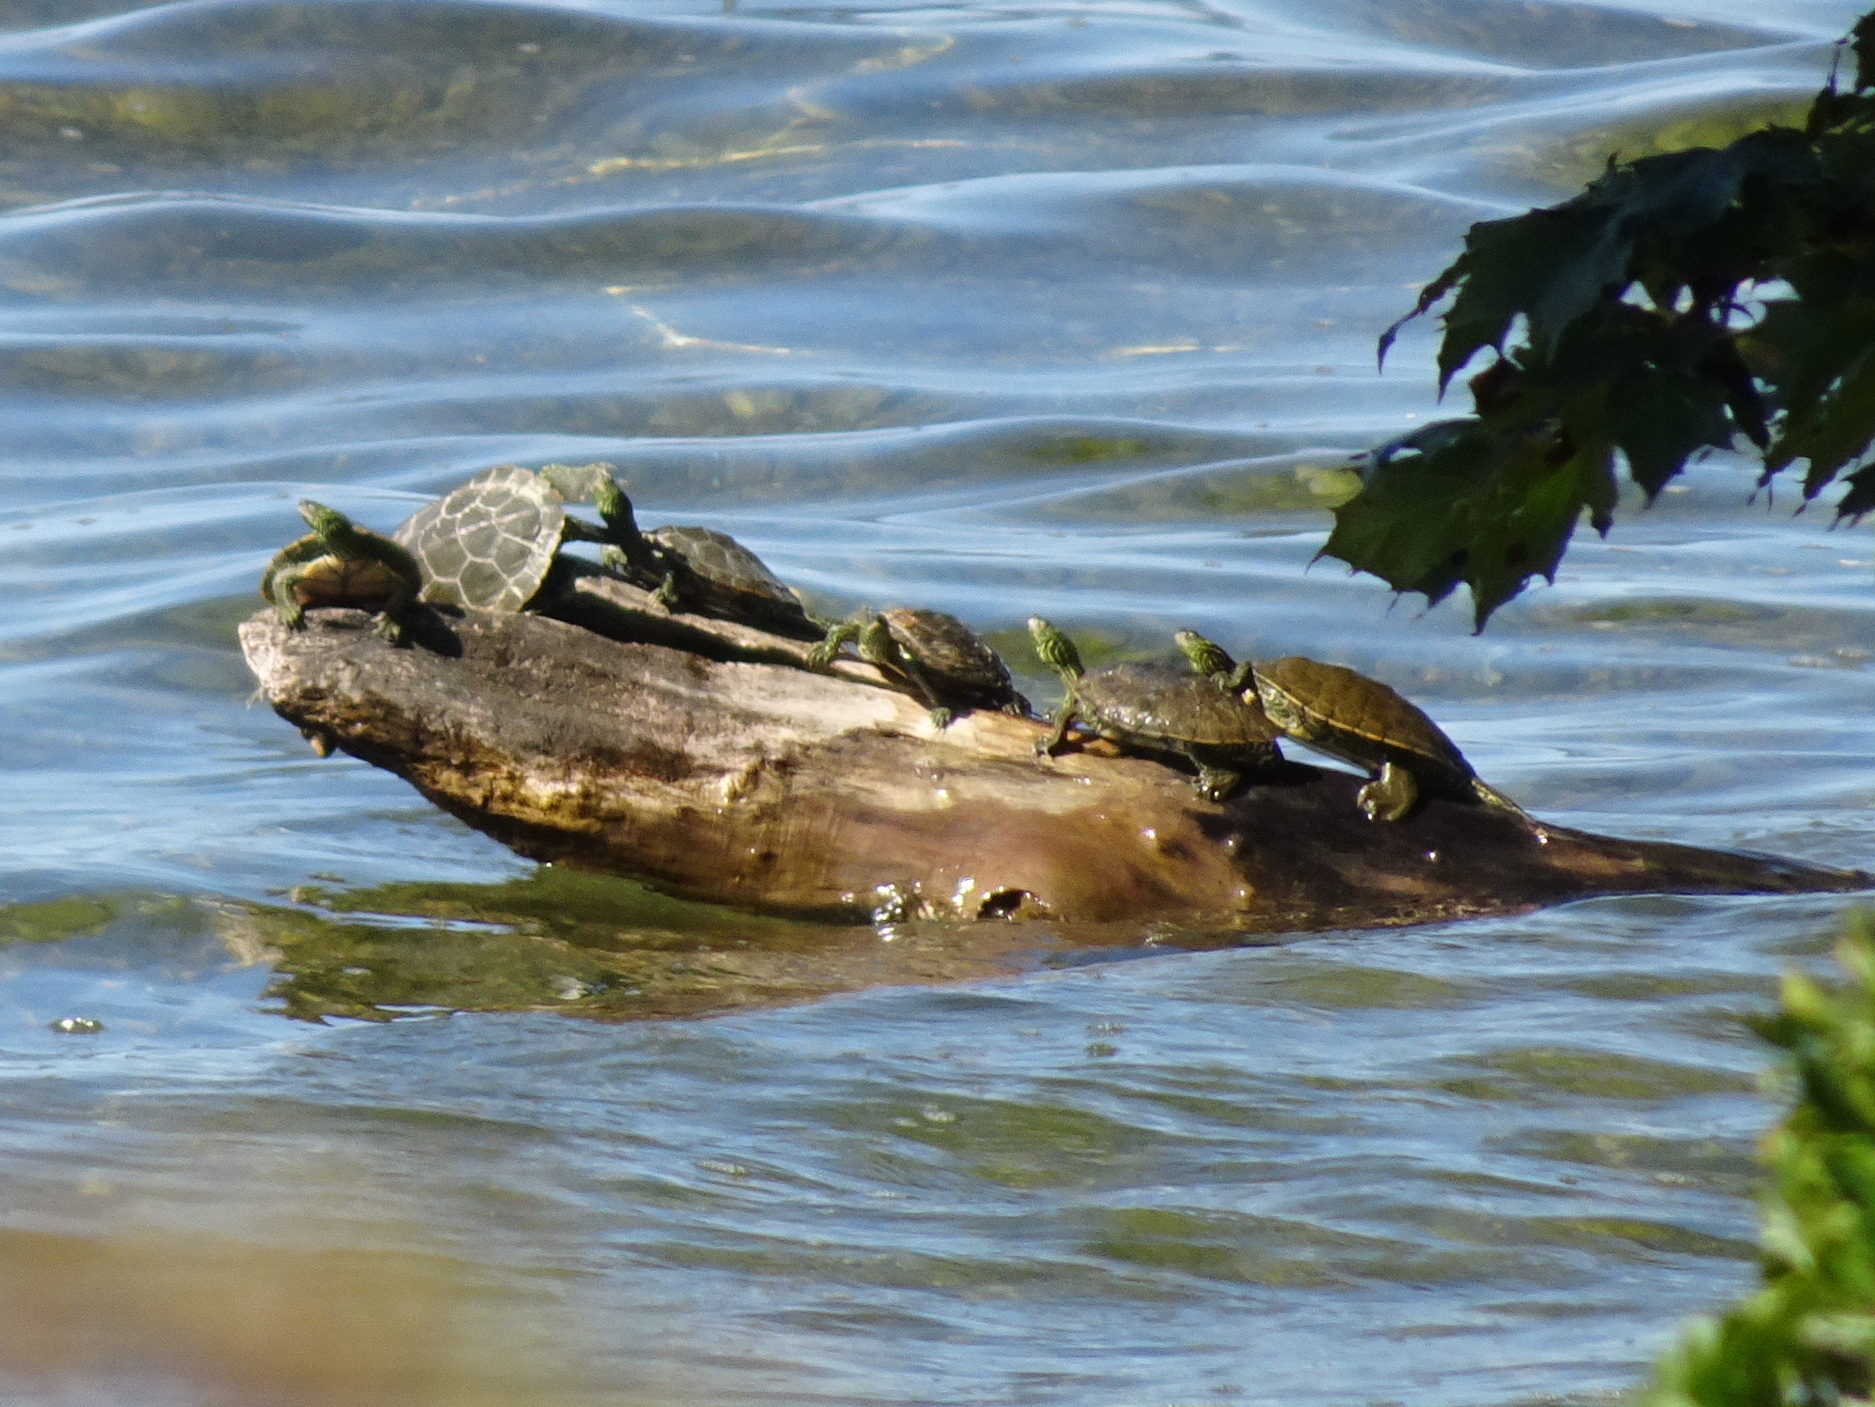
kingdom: Animalia
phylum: Chordata
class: Testudines
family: Emydidae
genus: Graptemys
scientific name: Graptemys geographica
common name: Common map turtle
